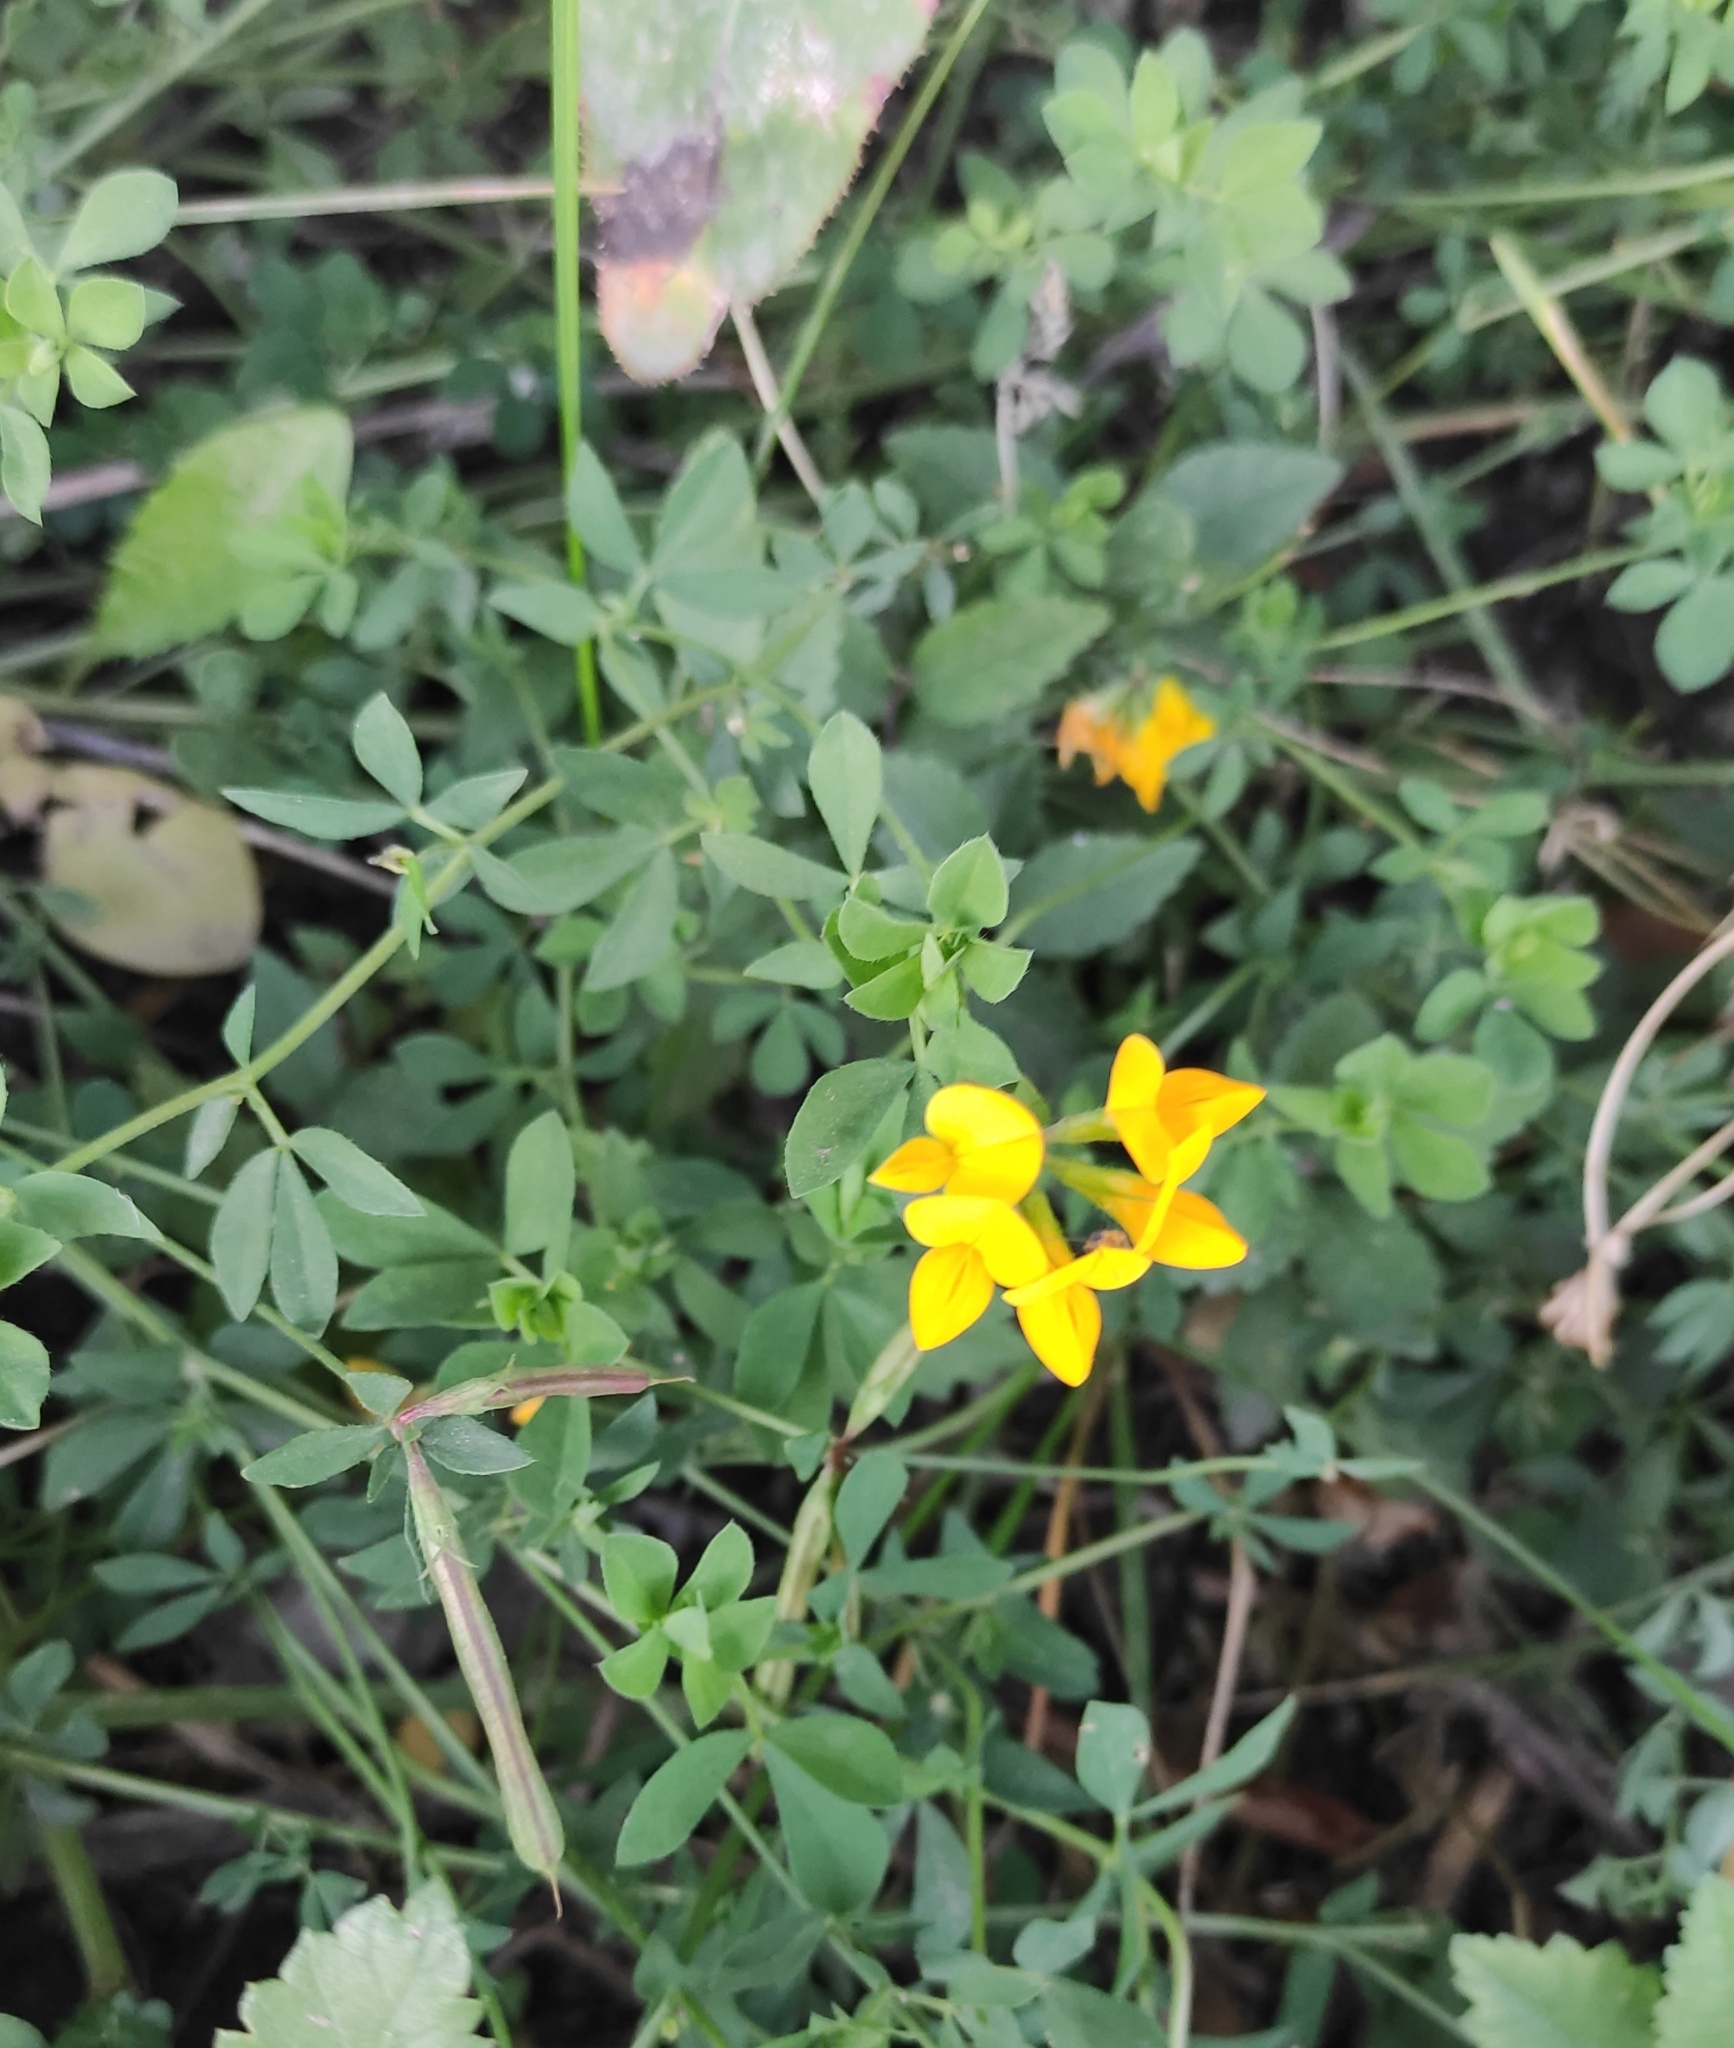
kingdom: Plantae
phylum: Tracheophyta
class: Magnoliopsida
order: Fabales
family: Fabaceae
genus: Lotus
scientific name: Lotus corniculatus
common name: Common bird's-foot-trefoil
